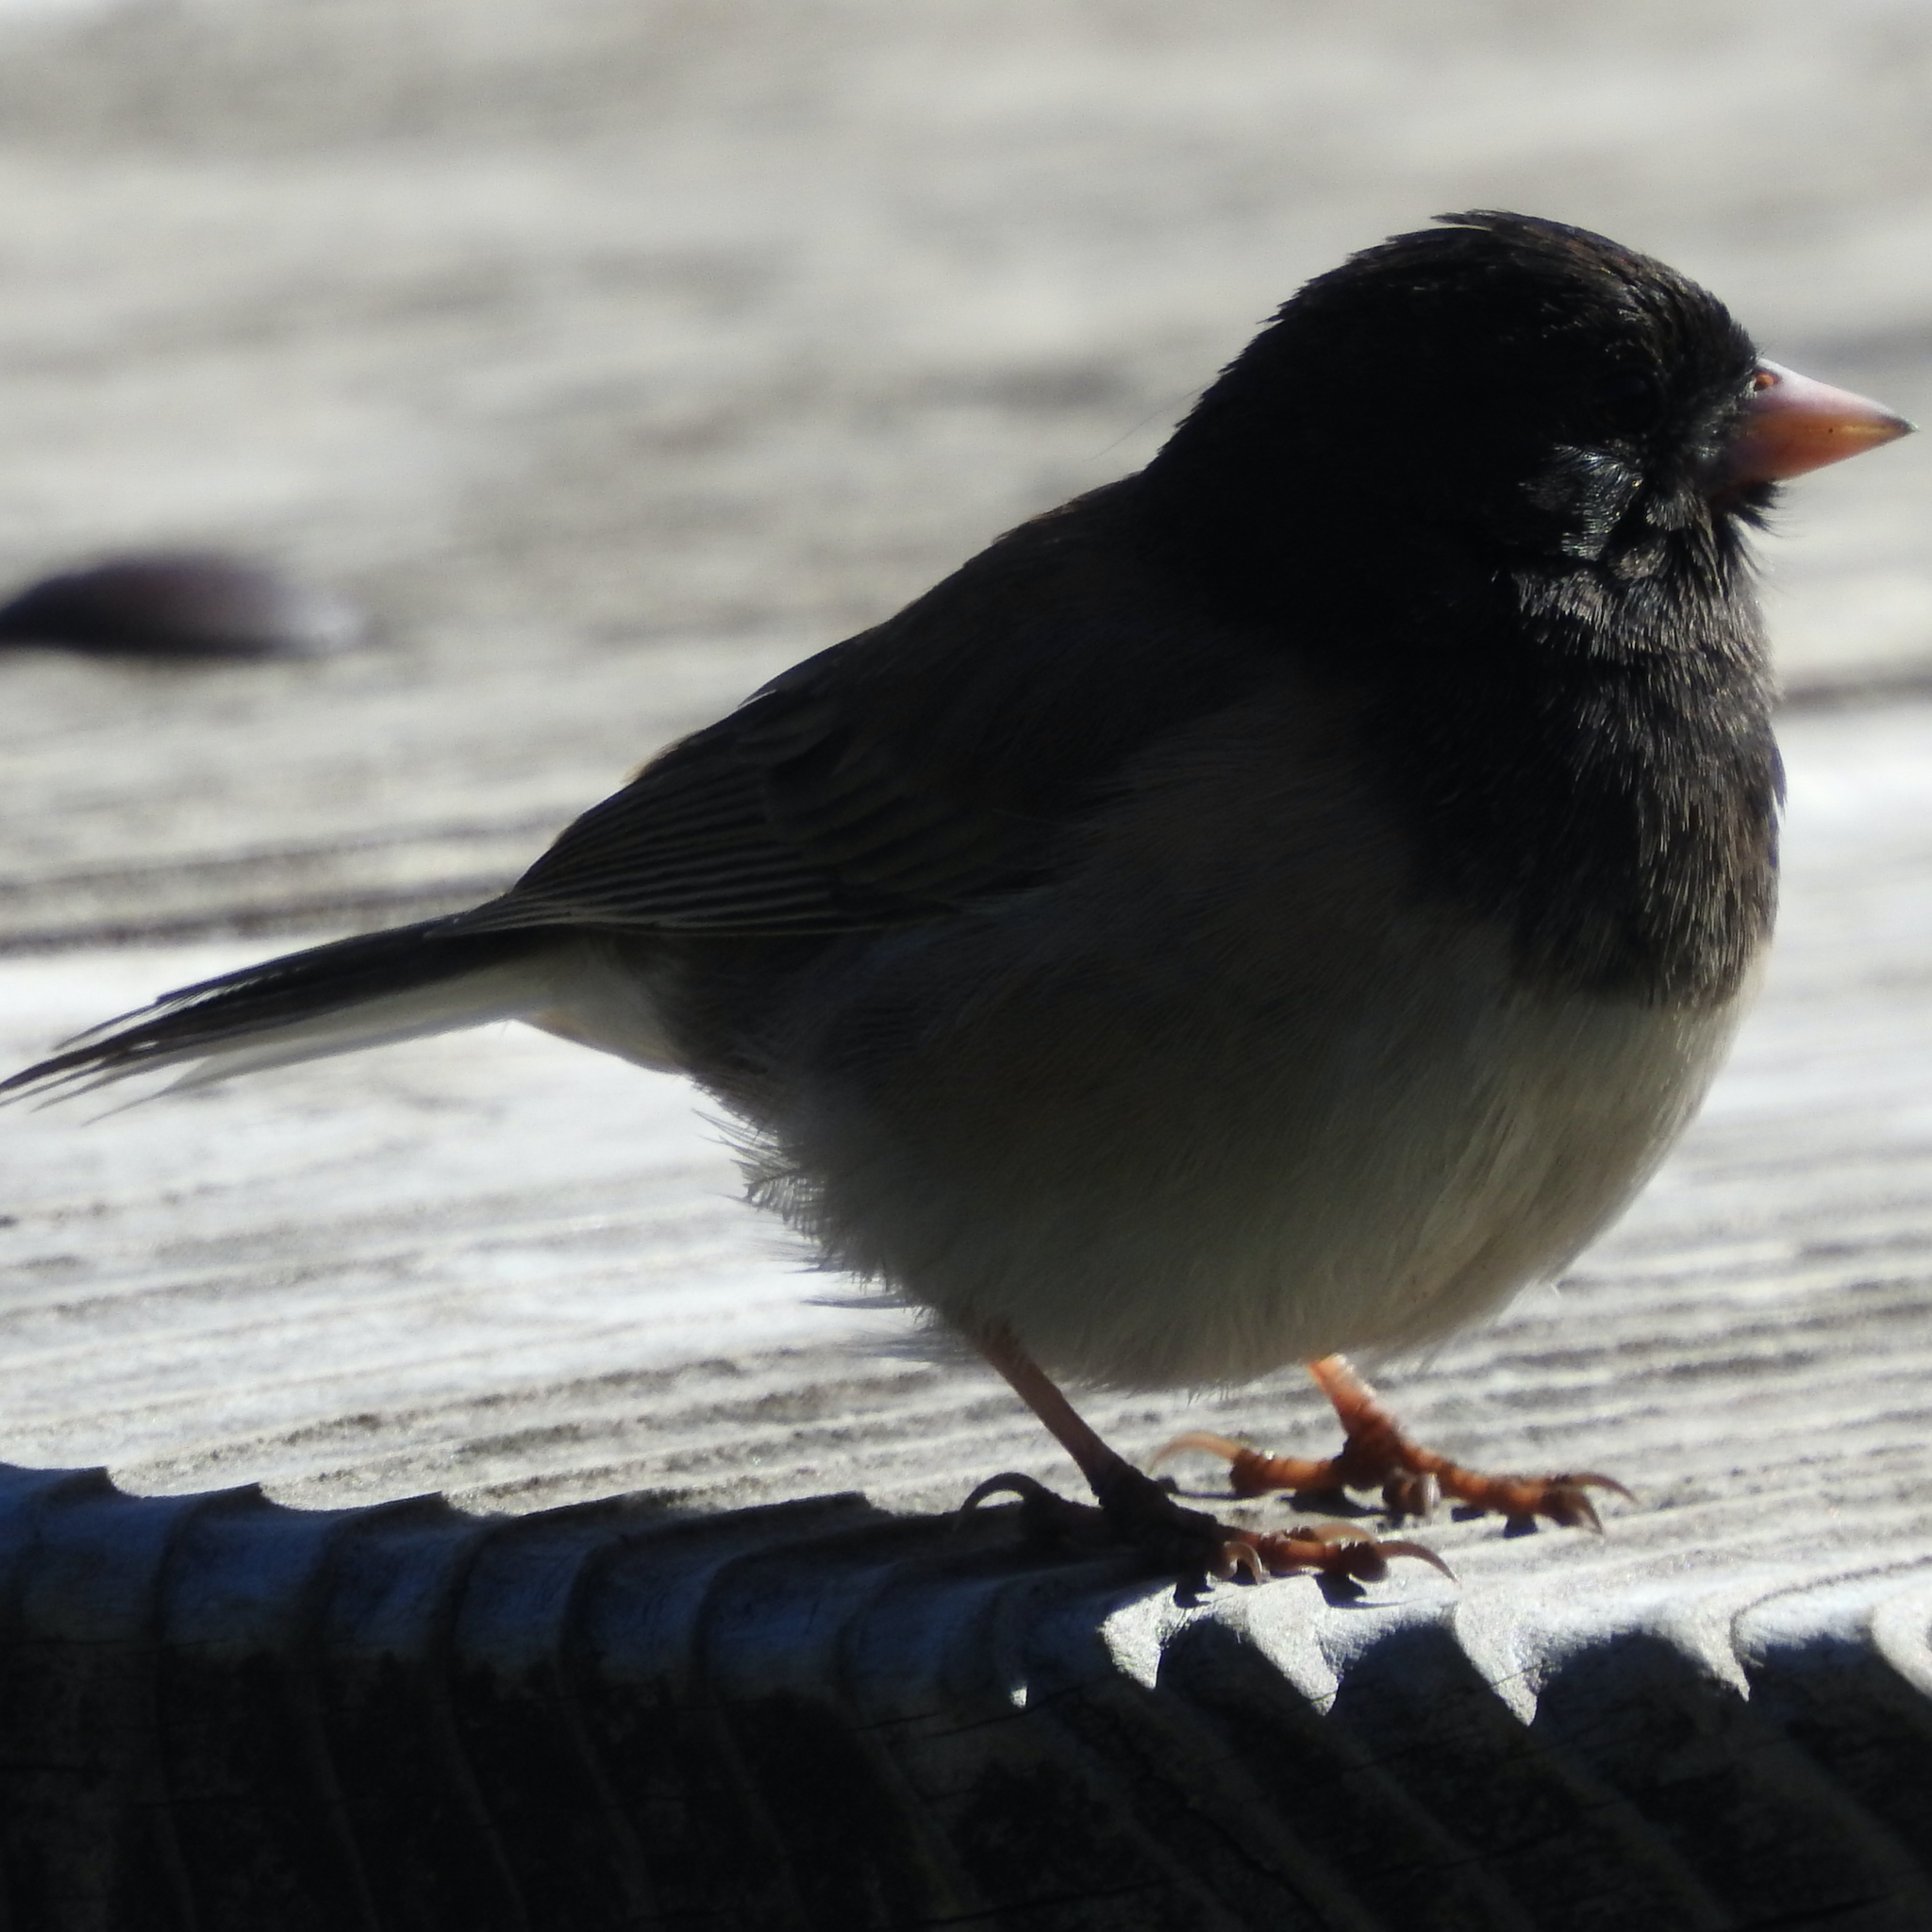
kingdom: Animalia
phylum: Chordata
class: Aves
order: Passeriformes
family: Passerellidae
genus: Junco
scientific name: Junco hyemalis
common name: Dark-eyed junco
